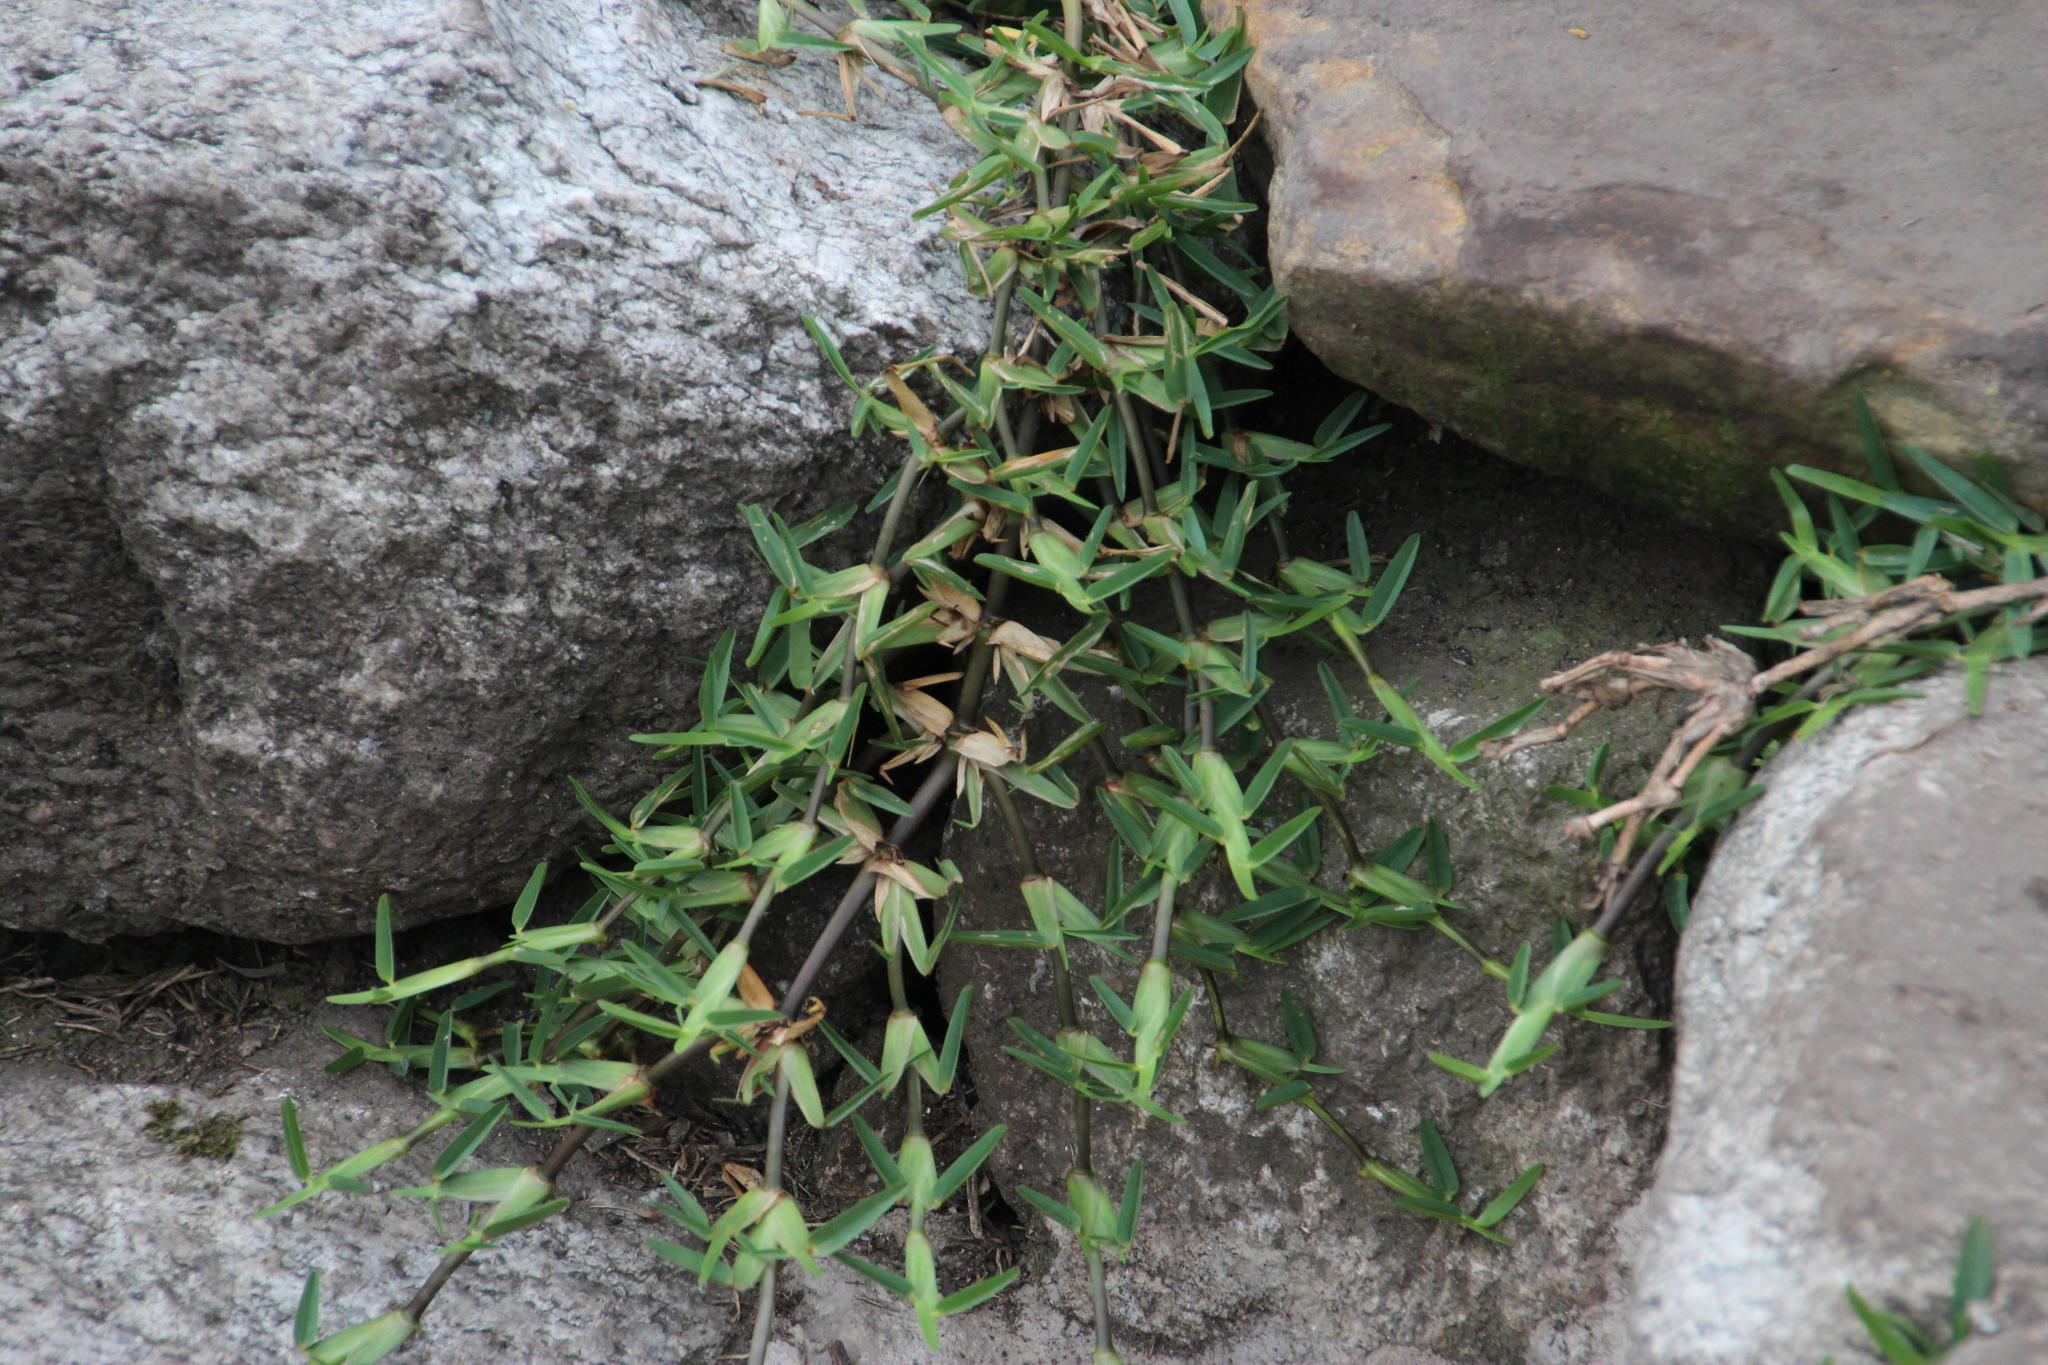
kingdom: Plantae
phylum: Tracheophyta
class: Liliopsida
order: Poales
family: Poaceae
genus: Stenotaphrum
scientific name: Stenotaphrum secundatum
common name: St. augustine grass
